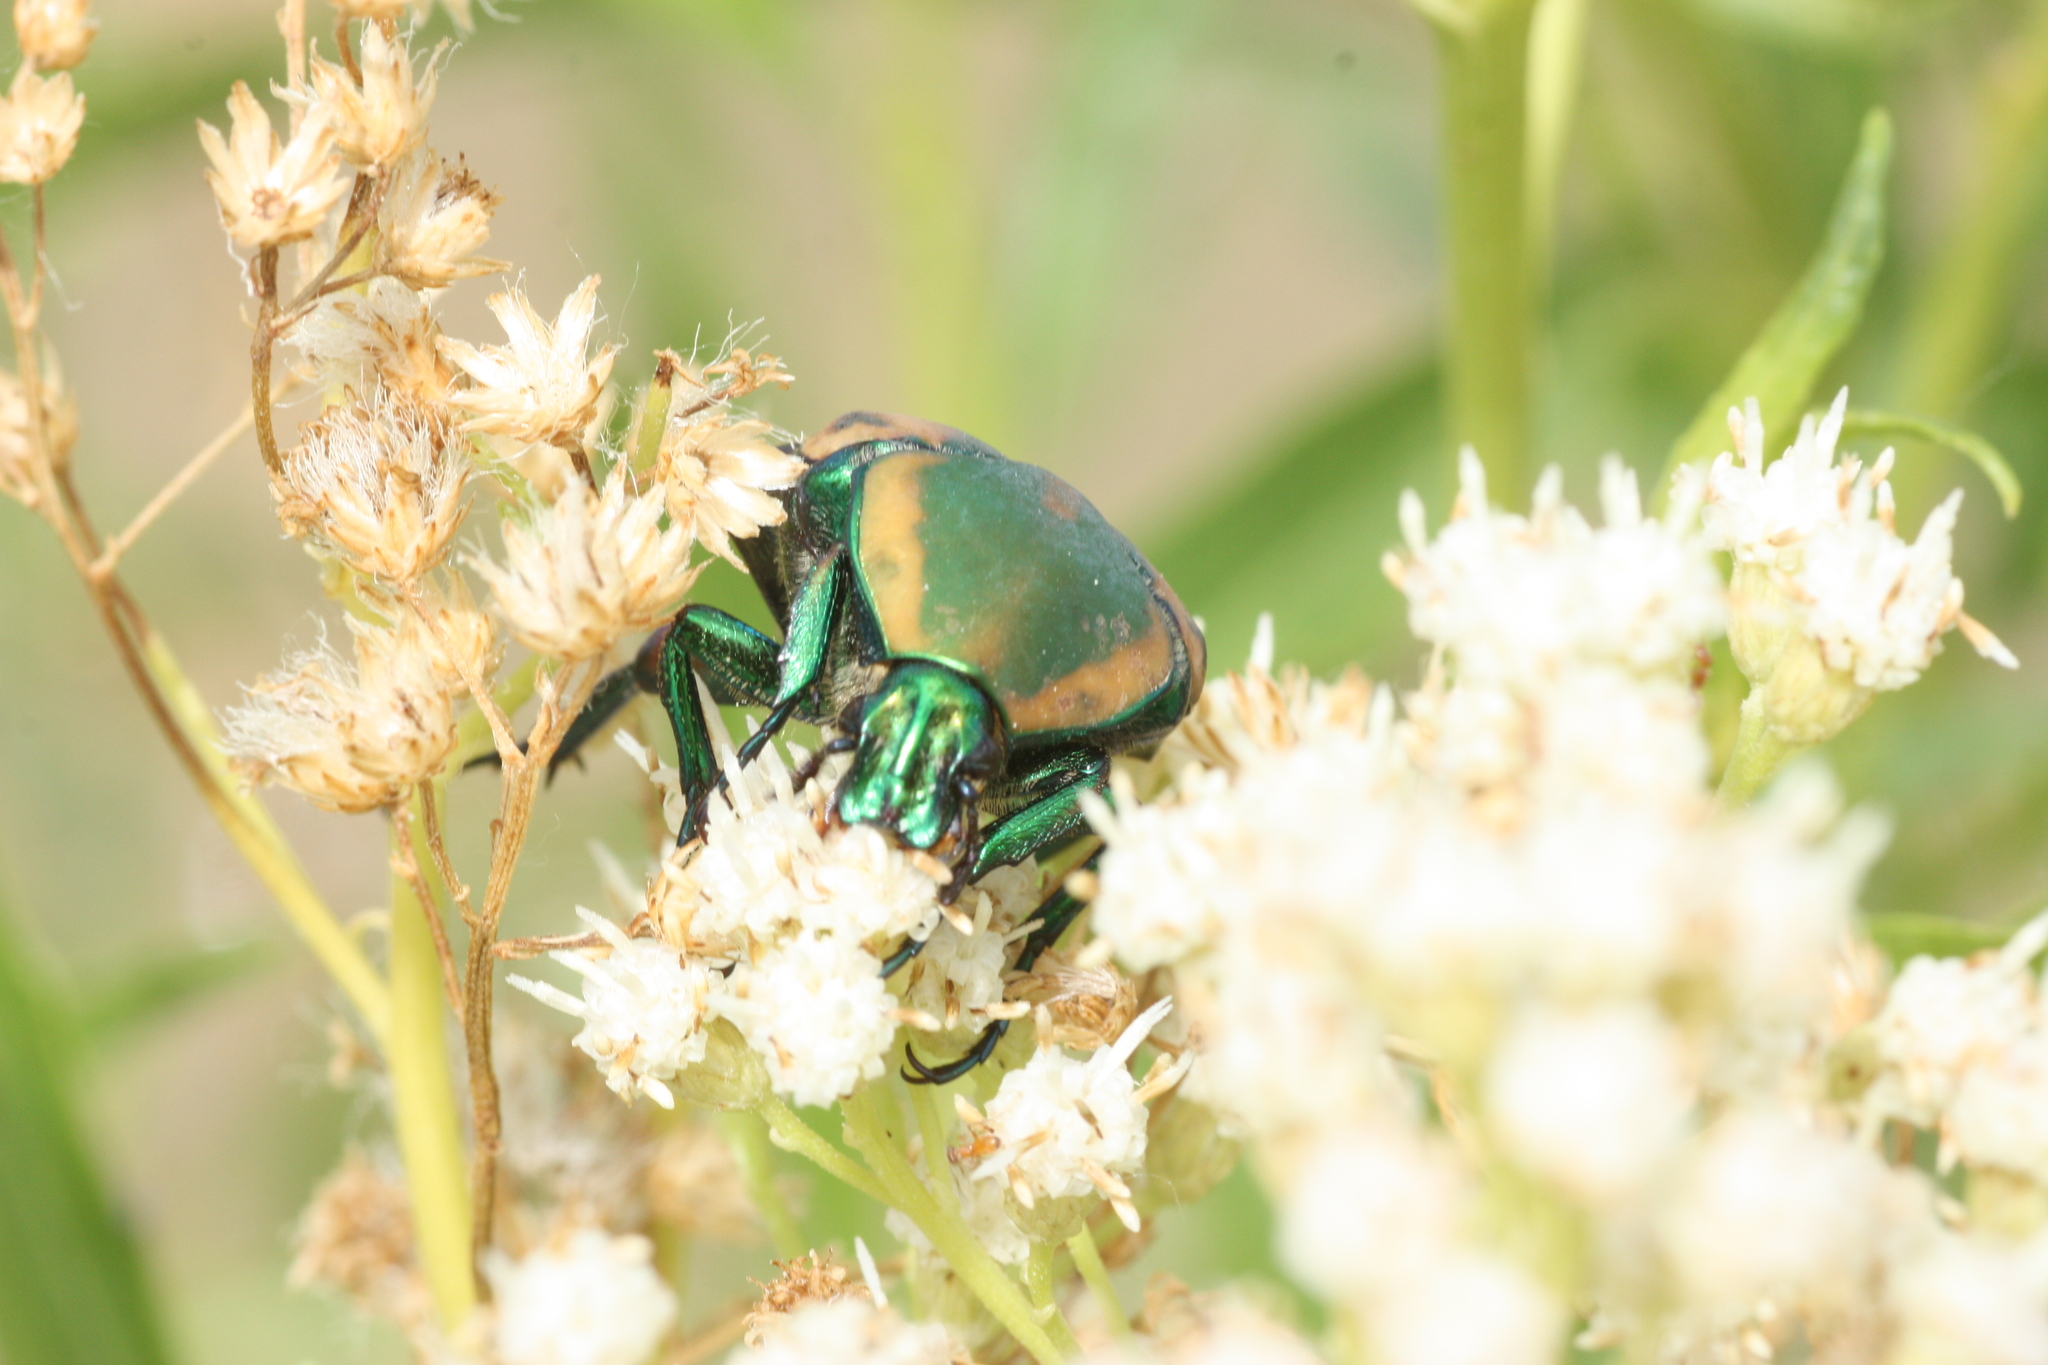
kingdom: Animalia
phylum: Arthropoda
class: Insecta
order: Coleoptera
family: Scarabaeidae
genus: Cotinis
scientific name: Cotinis mutabilis
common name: Figeater beetle
